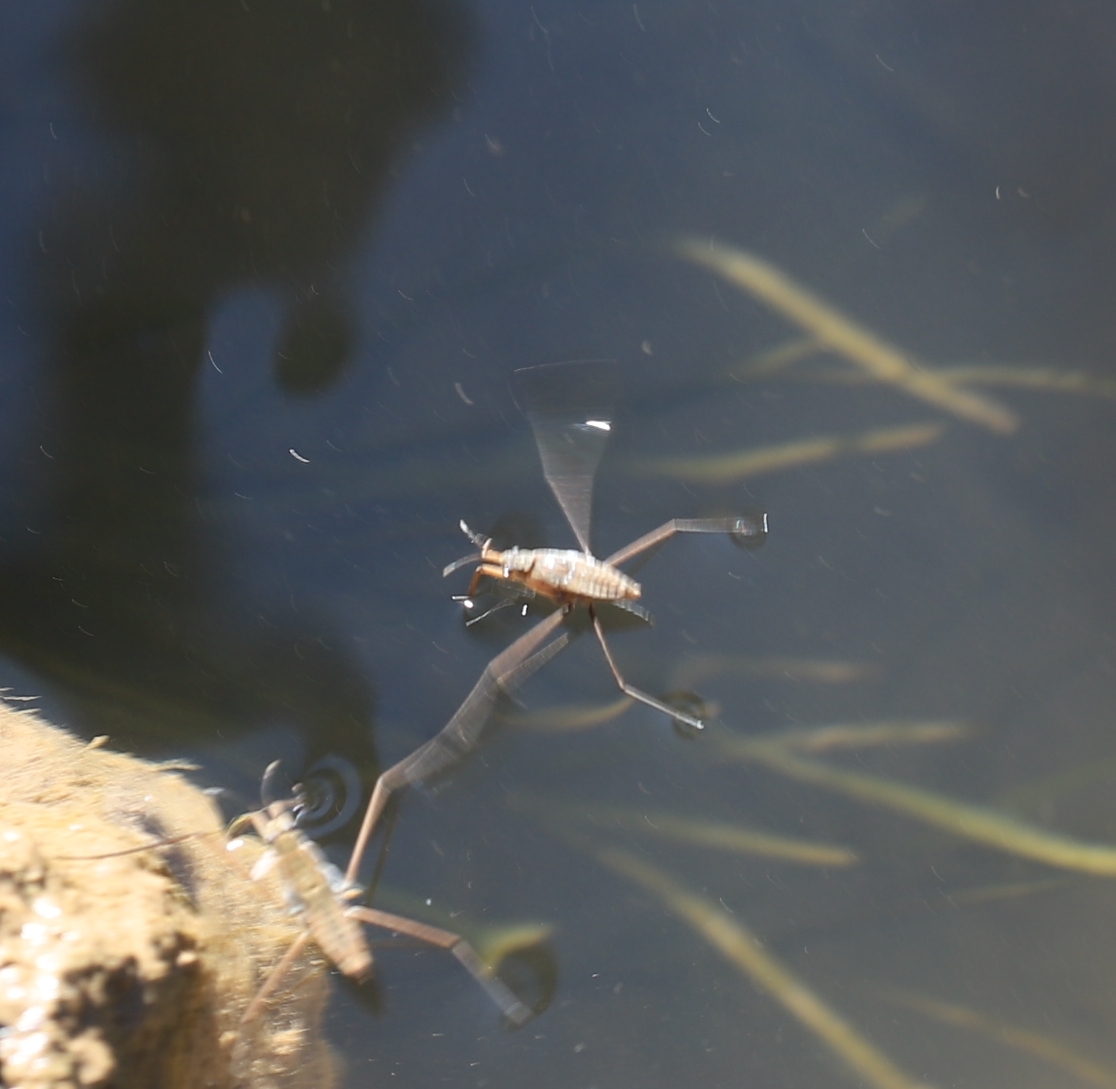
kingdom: Animalia
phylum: Arthropoda
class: Insecta
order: Hemiptera
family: Gerridae
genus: Aquarius
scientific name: Aquarius remigis
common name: Common water strider
